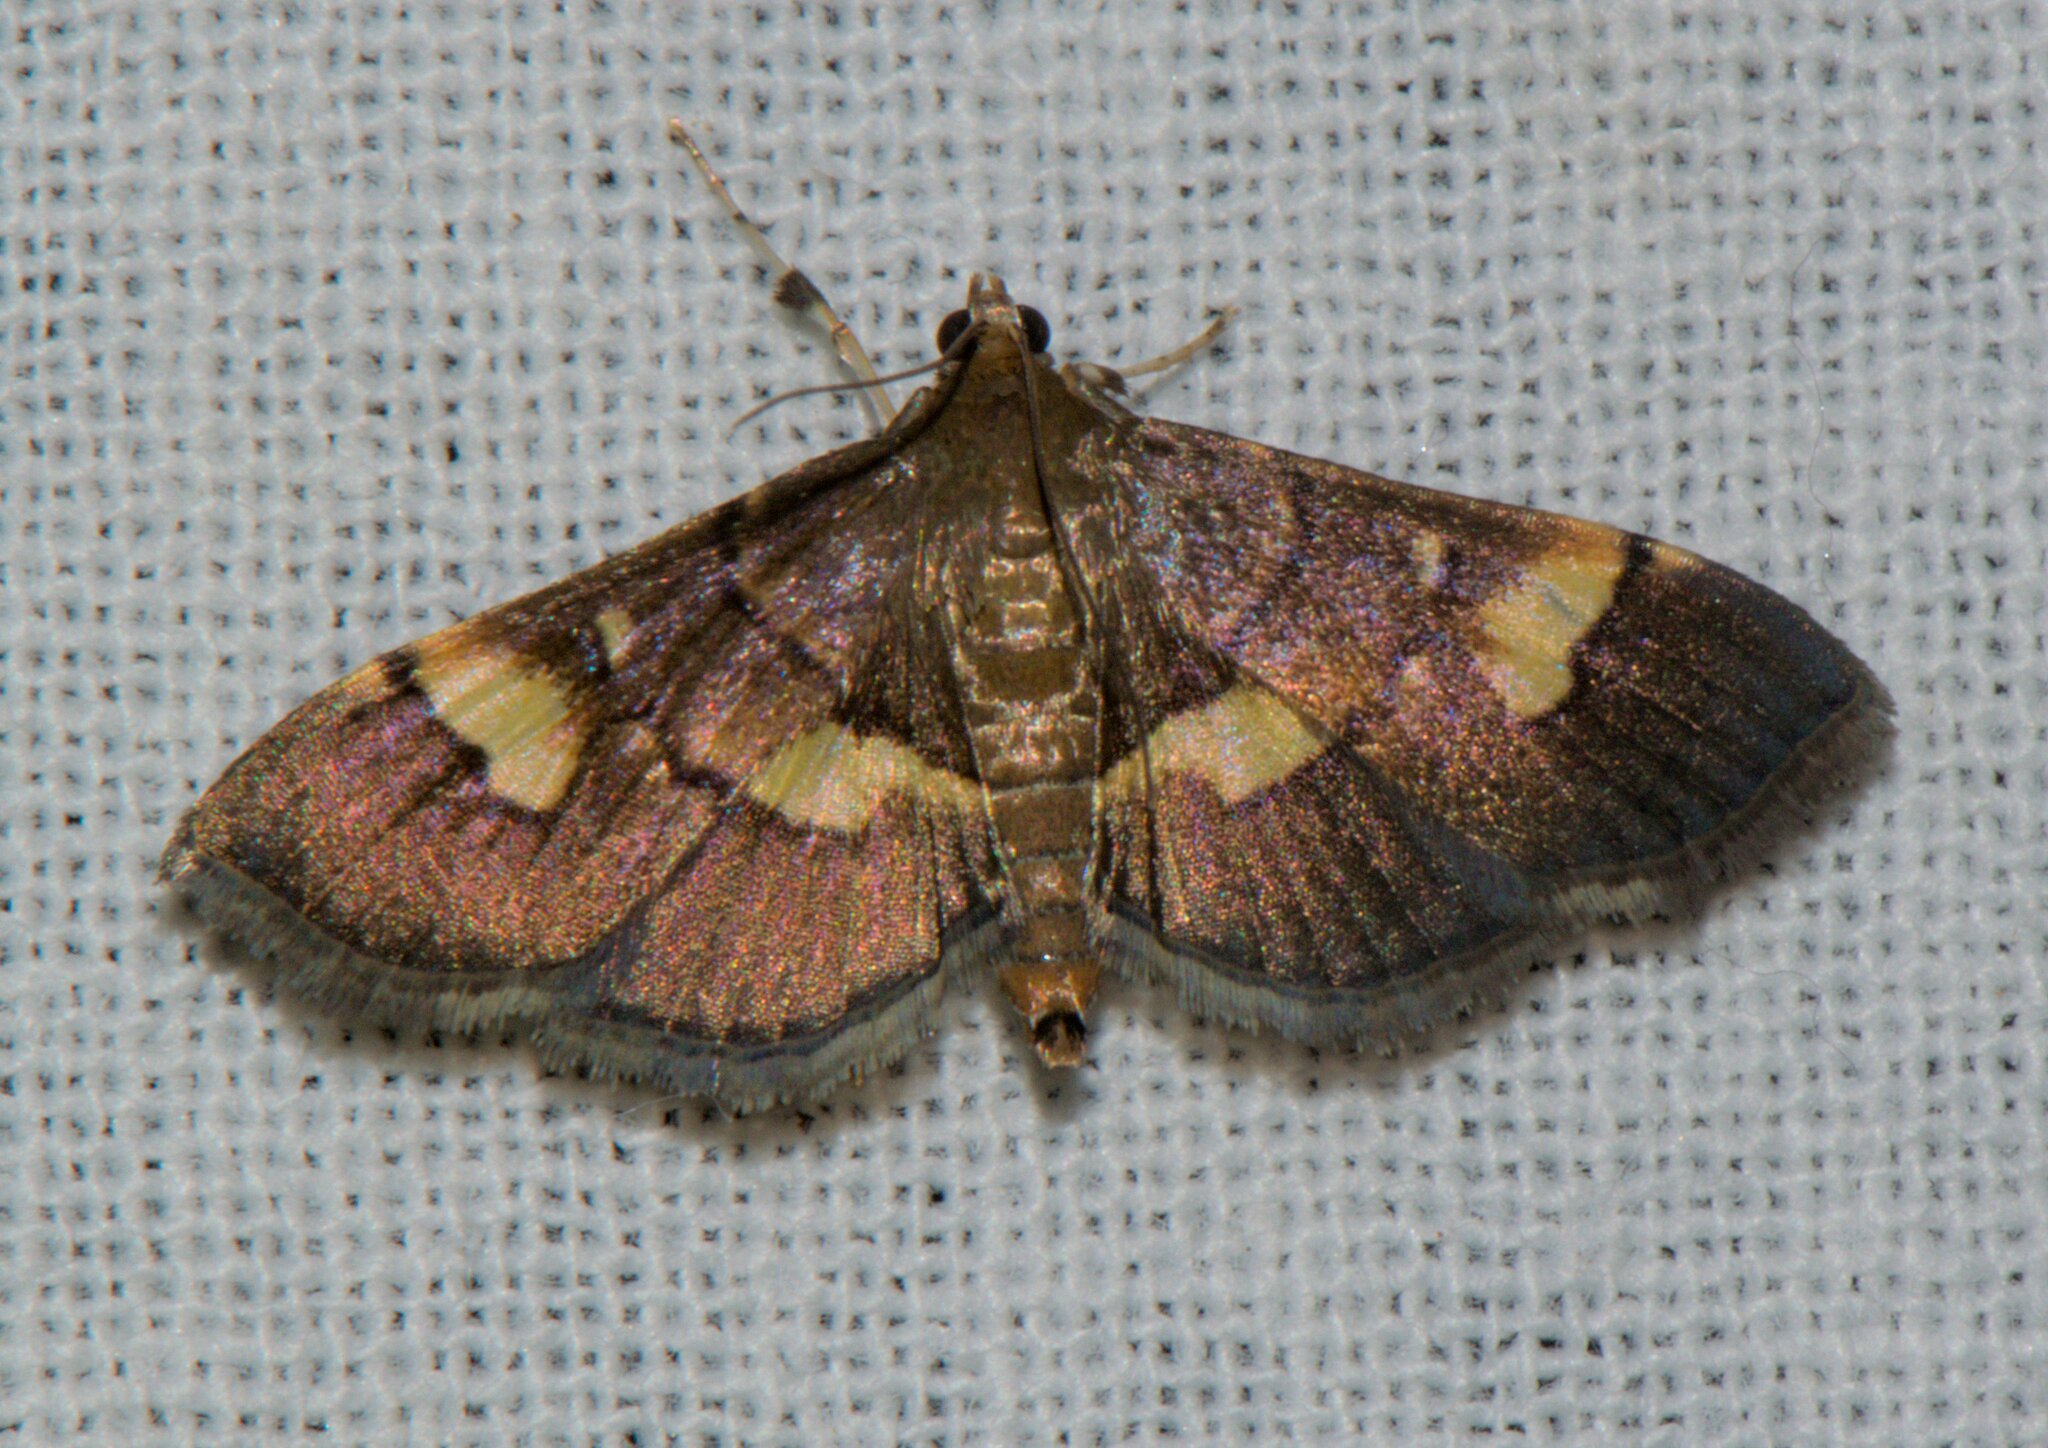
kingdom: Animalia
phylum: Arthropoda
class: Insecta
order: Lepidoptera
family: Crambidae
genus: Syngamia
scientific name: Syngamia falsidicalis
